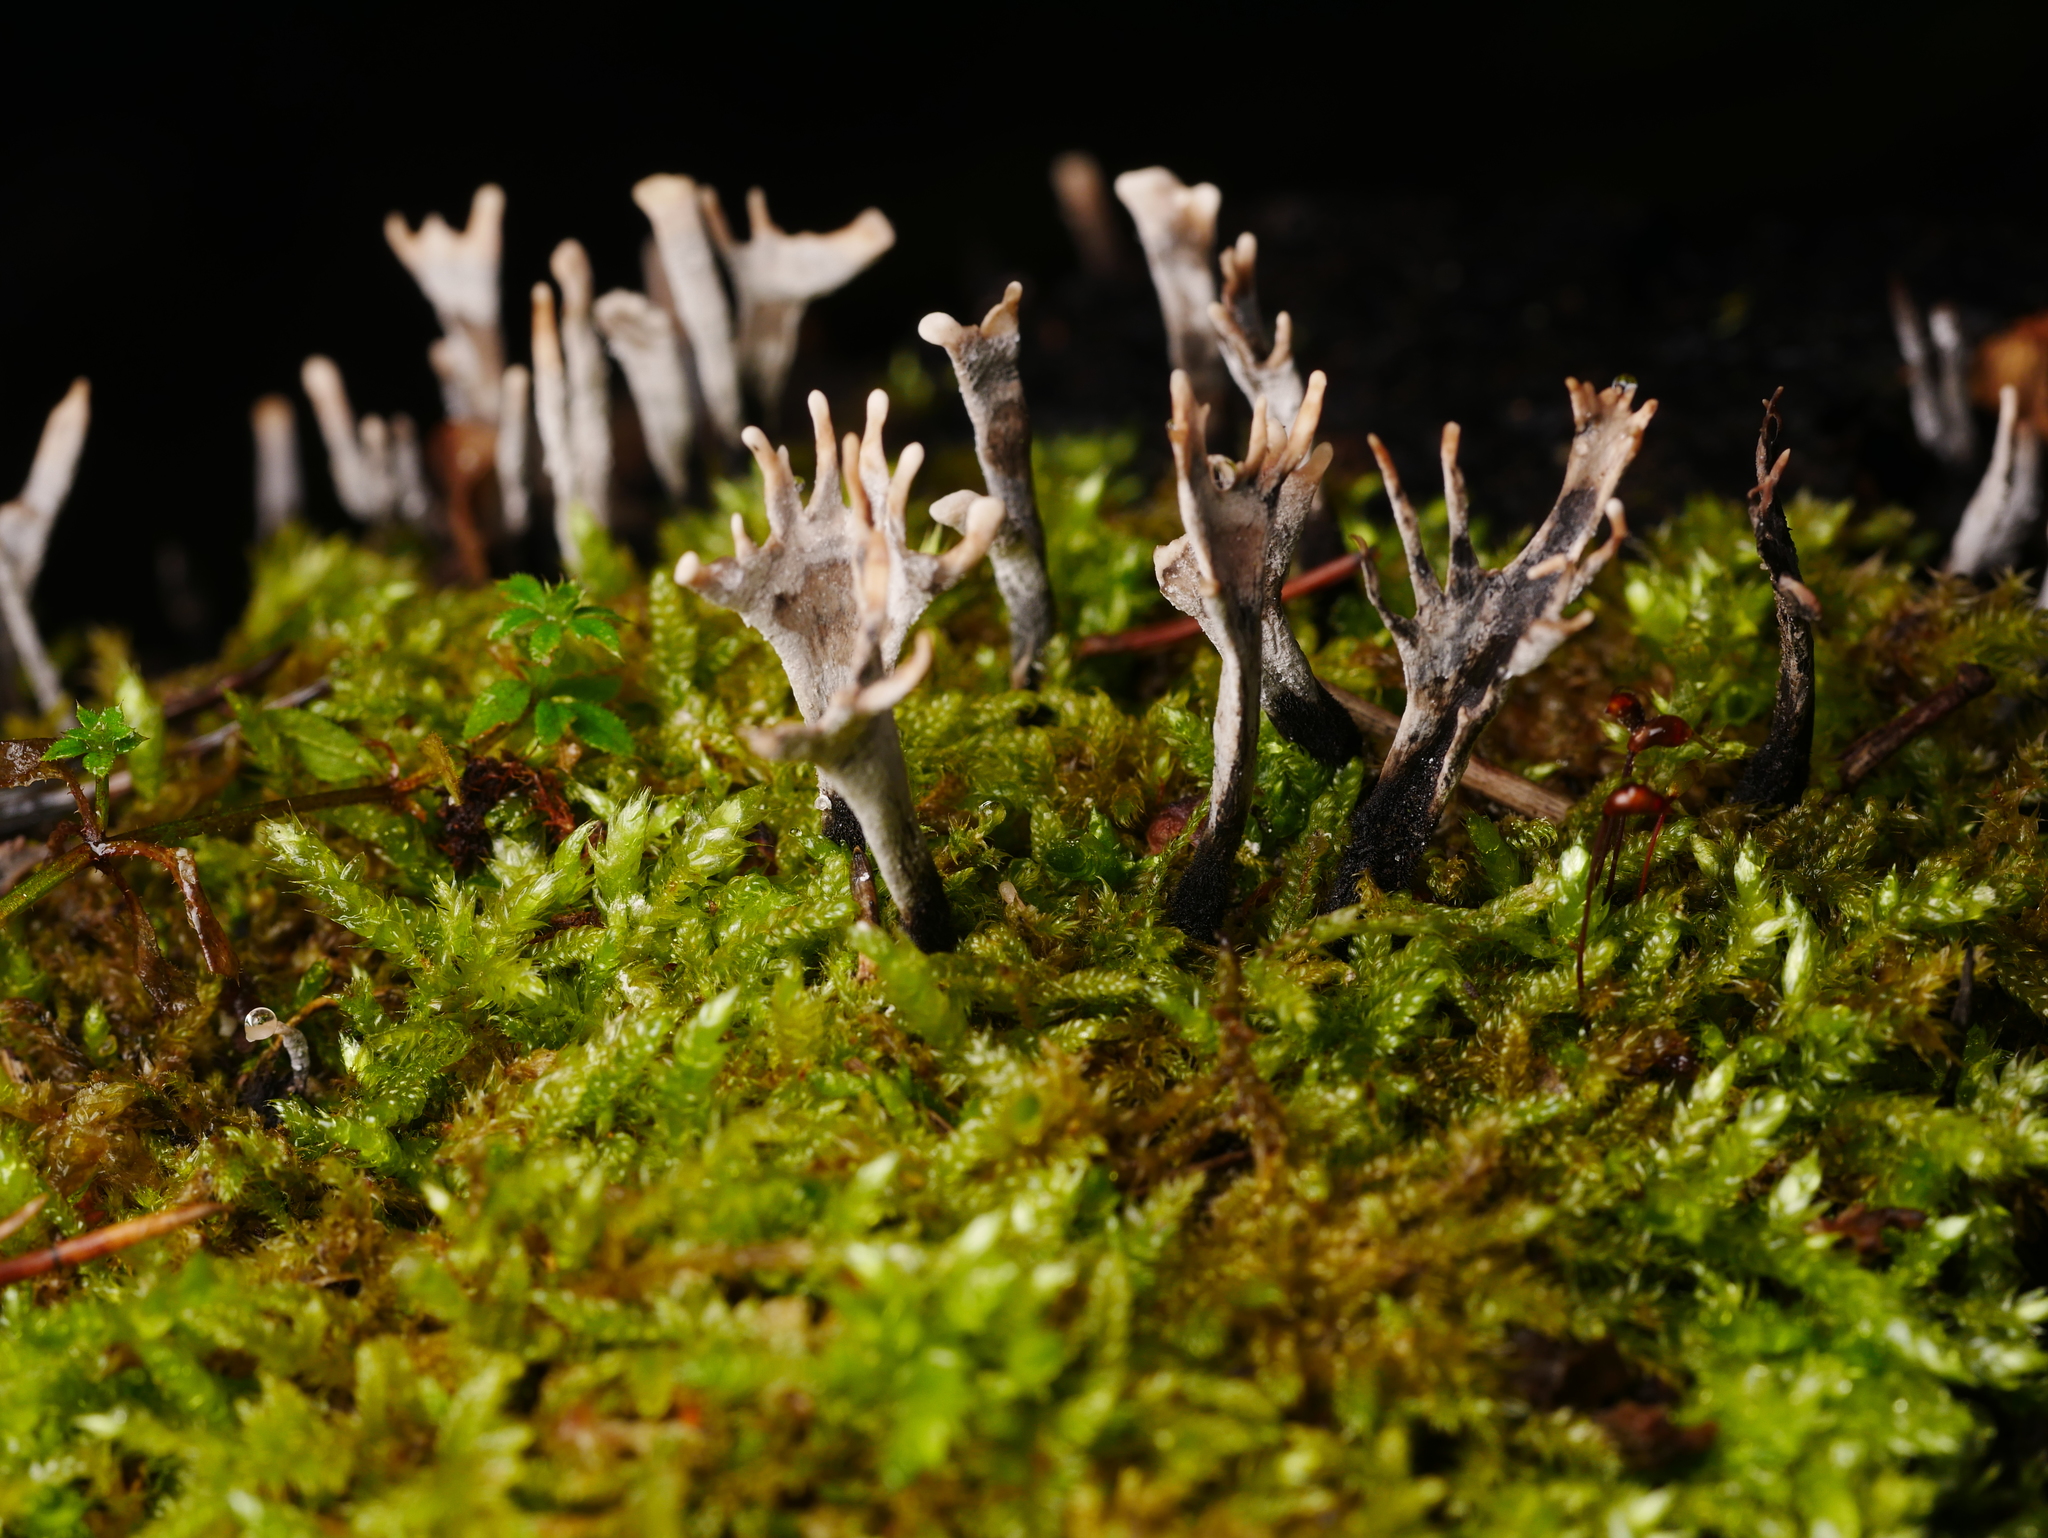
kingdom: Fungi
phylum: Ascomycota
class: Sordariomycetes
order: Xylariales
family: Xylariaceae
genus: Xylaria
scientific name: Xylaria hypoxylon
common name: Candle-snuff fungus
